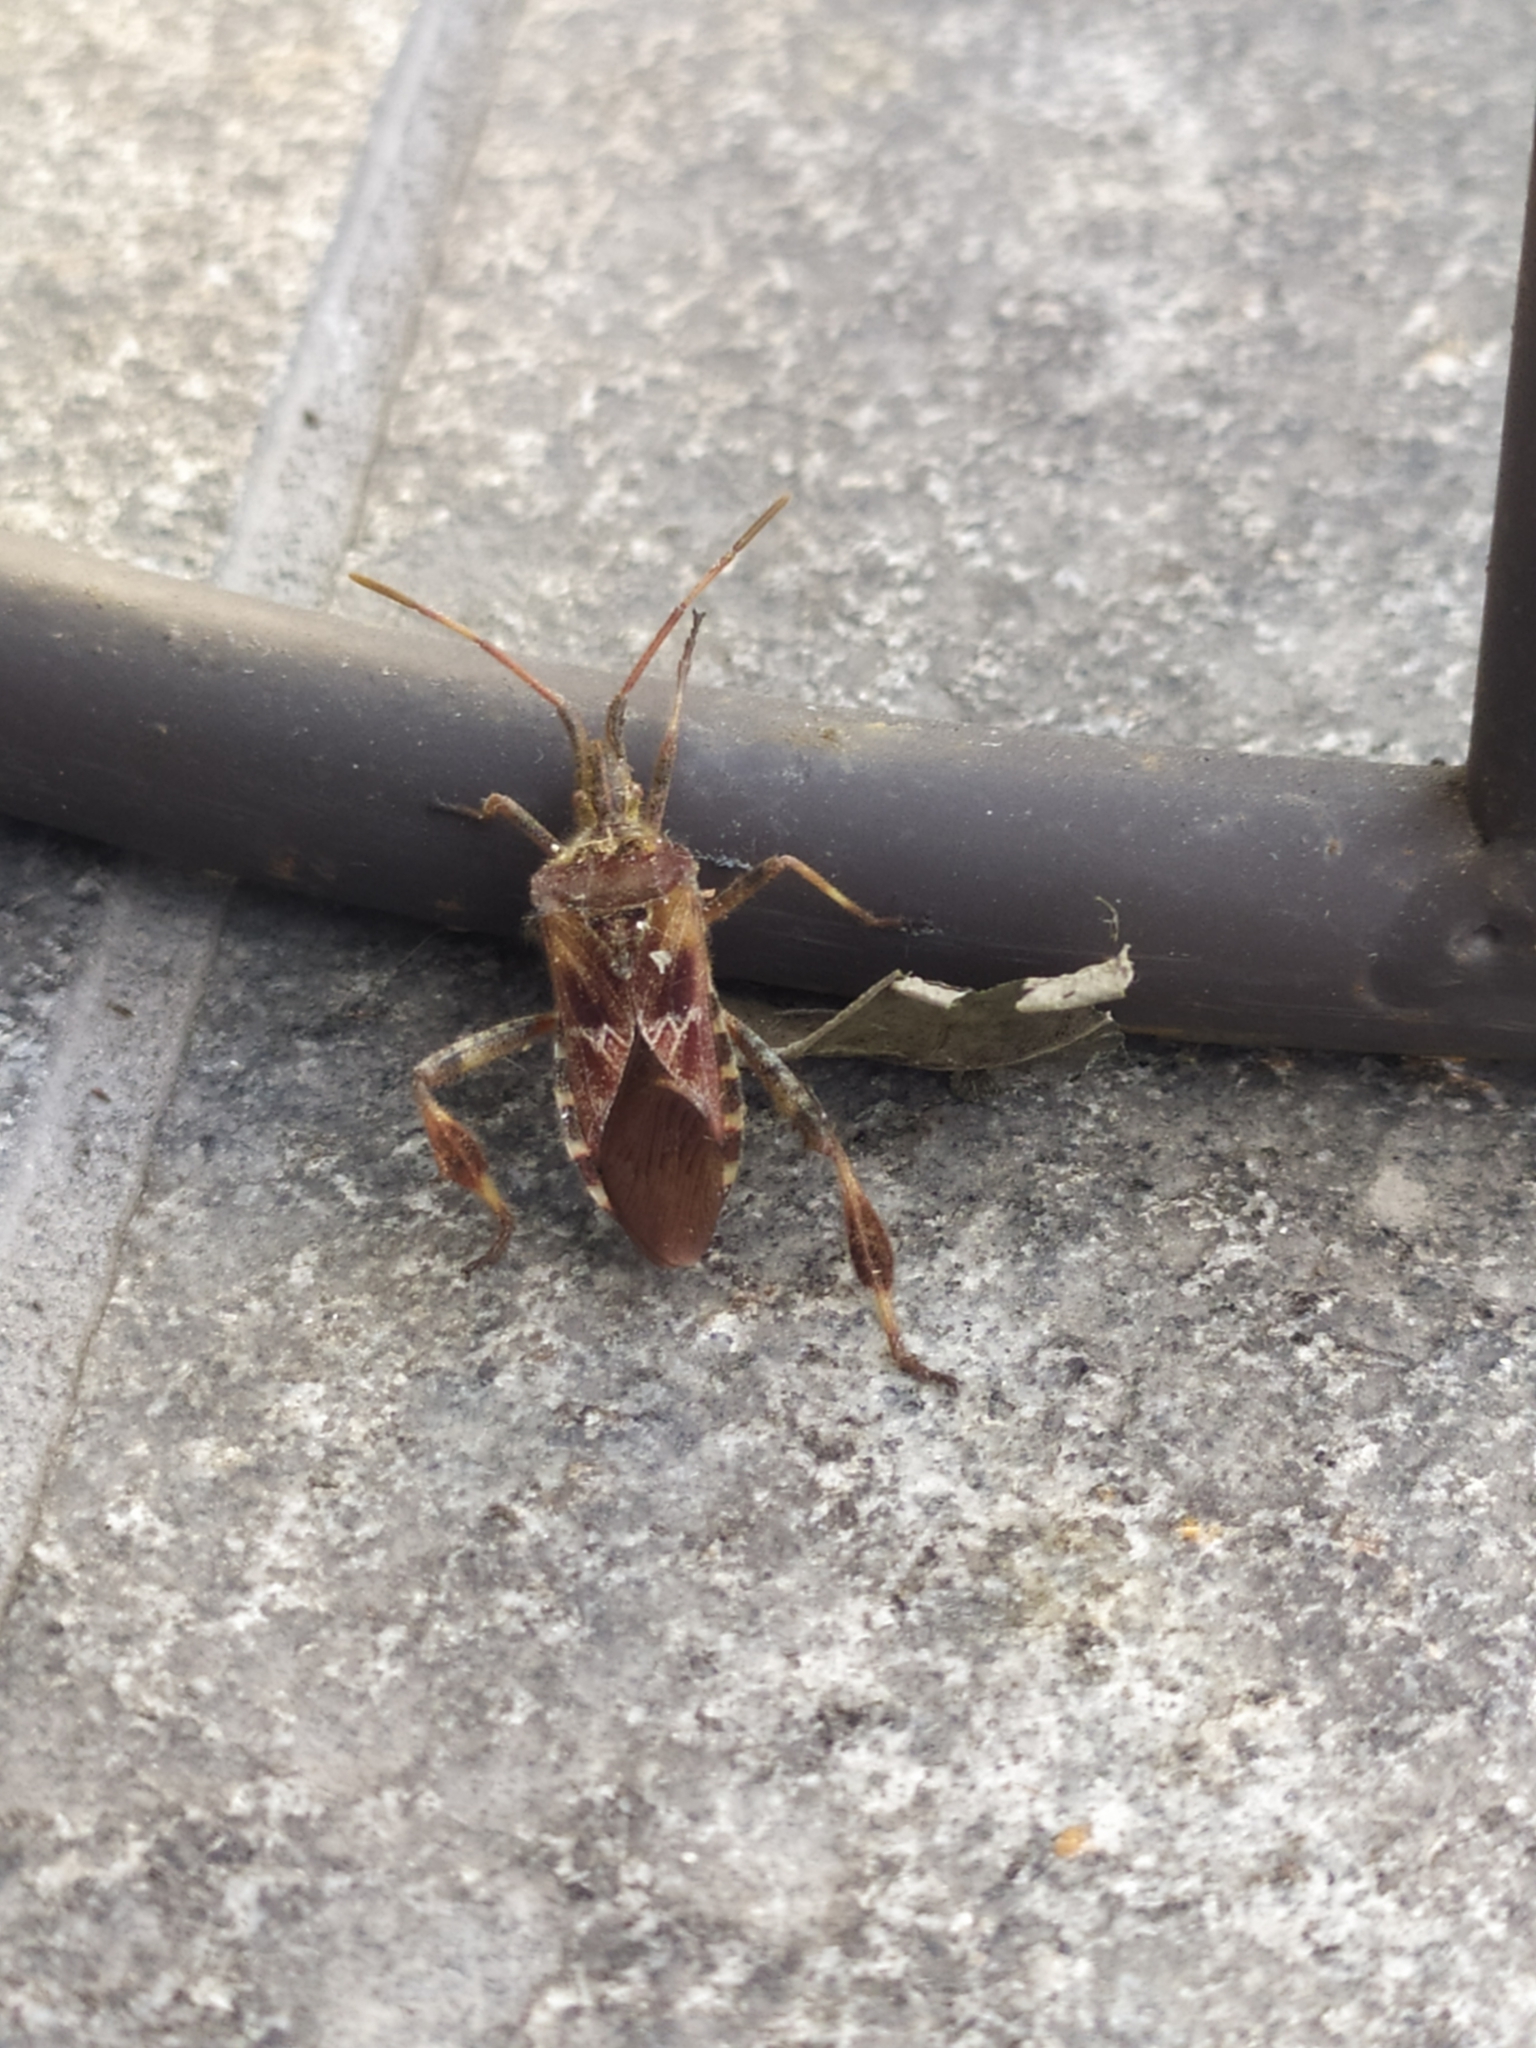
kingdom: Animalia
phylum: Arthropoda
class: Insecta
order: Hemiptera
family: Coreidae
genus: Leptoglossus
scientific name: Leptoglossus occidentalis
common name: Western conifer-seed bug
